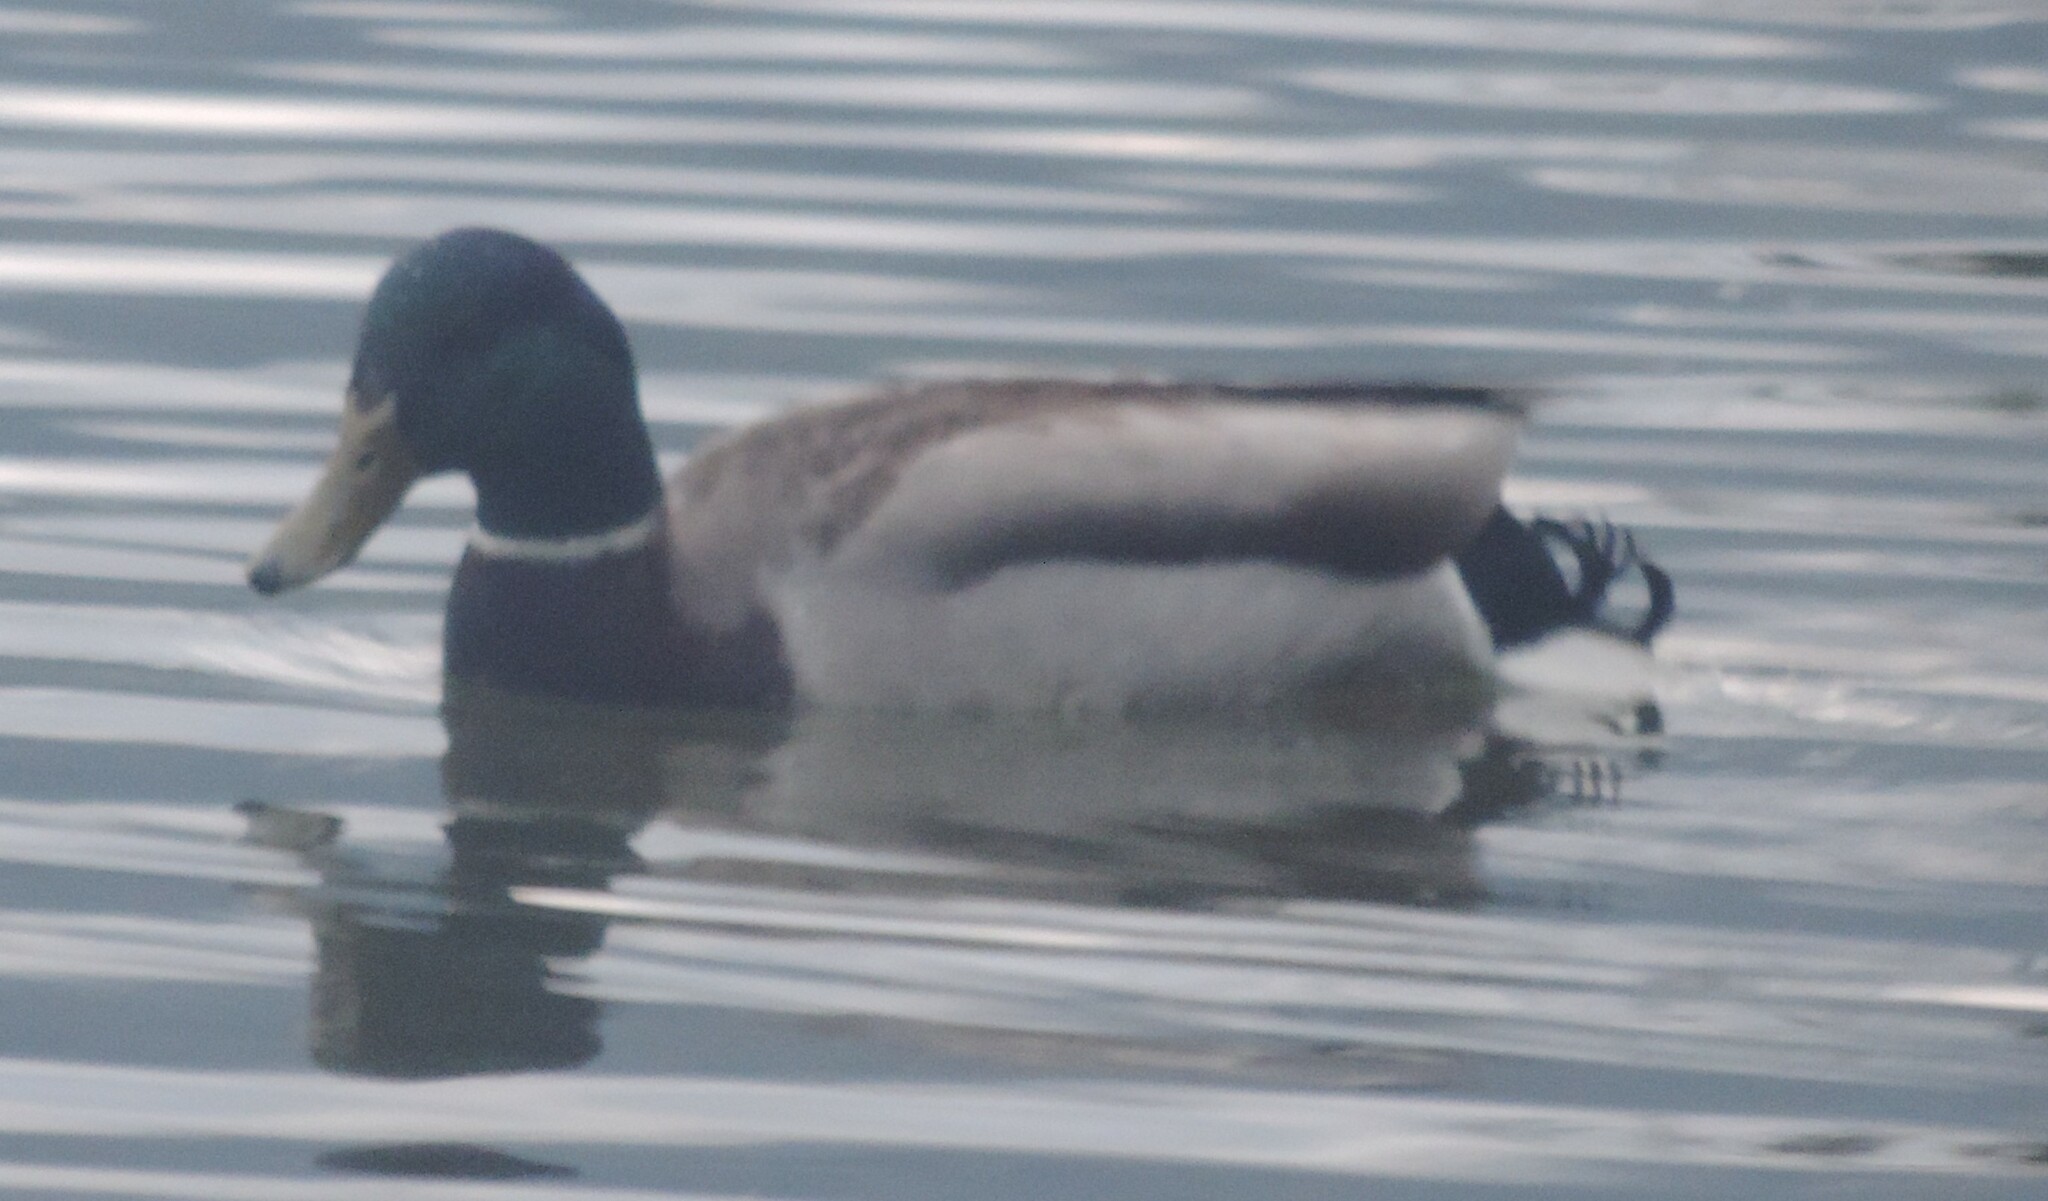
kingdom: Animalia
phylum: Chordata
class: Aves
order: Anseriformes
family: Anatidae
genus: Anas
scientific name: Anas platyrhynchos
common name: Mallard
